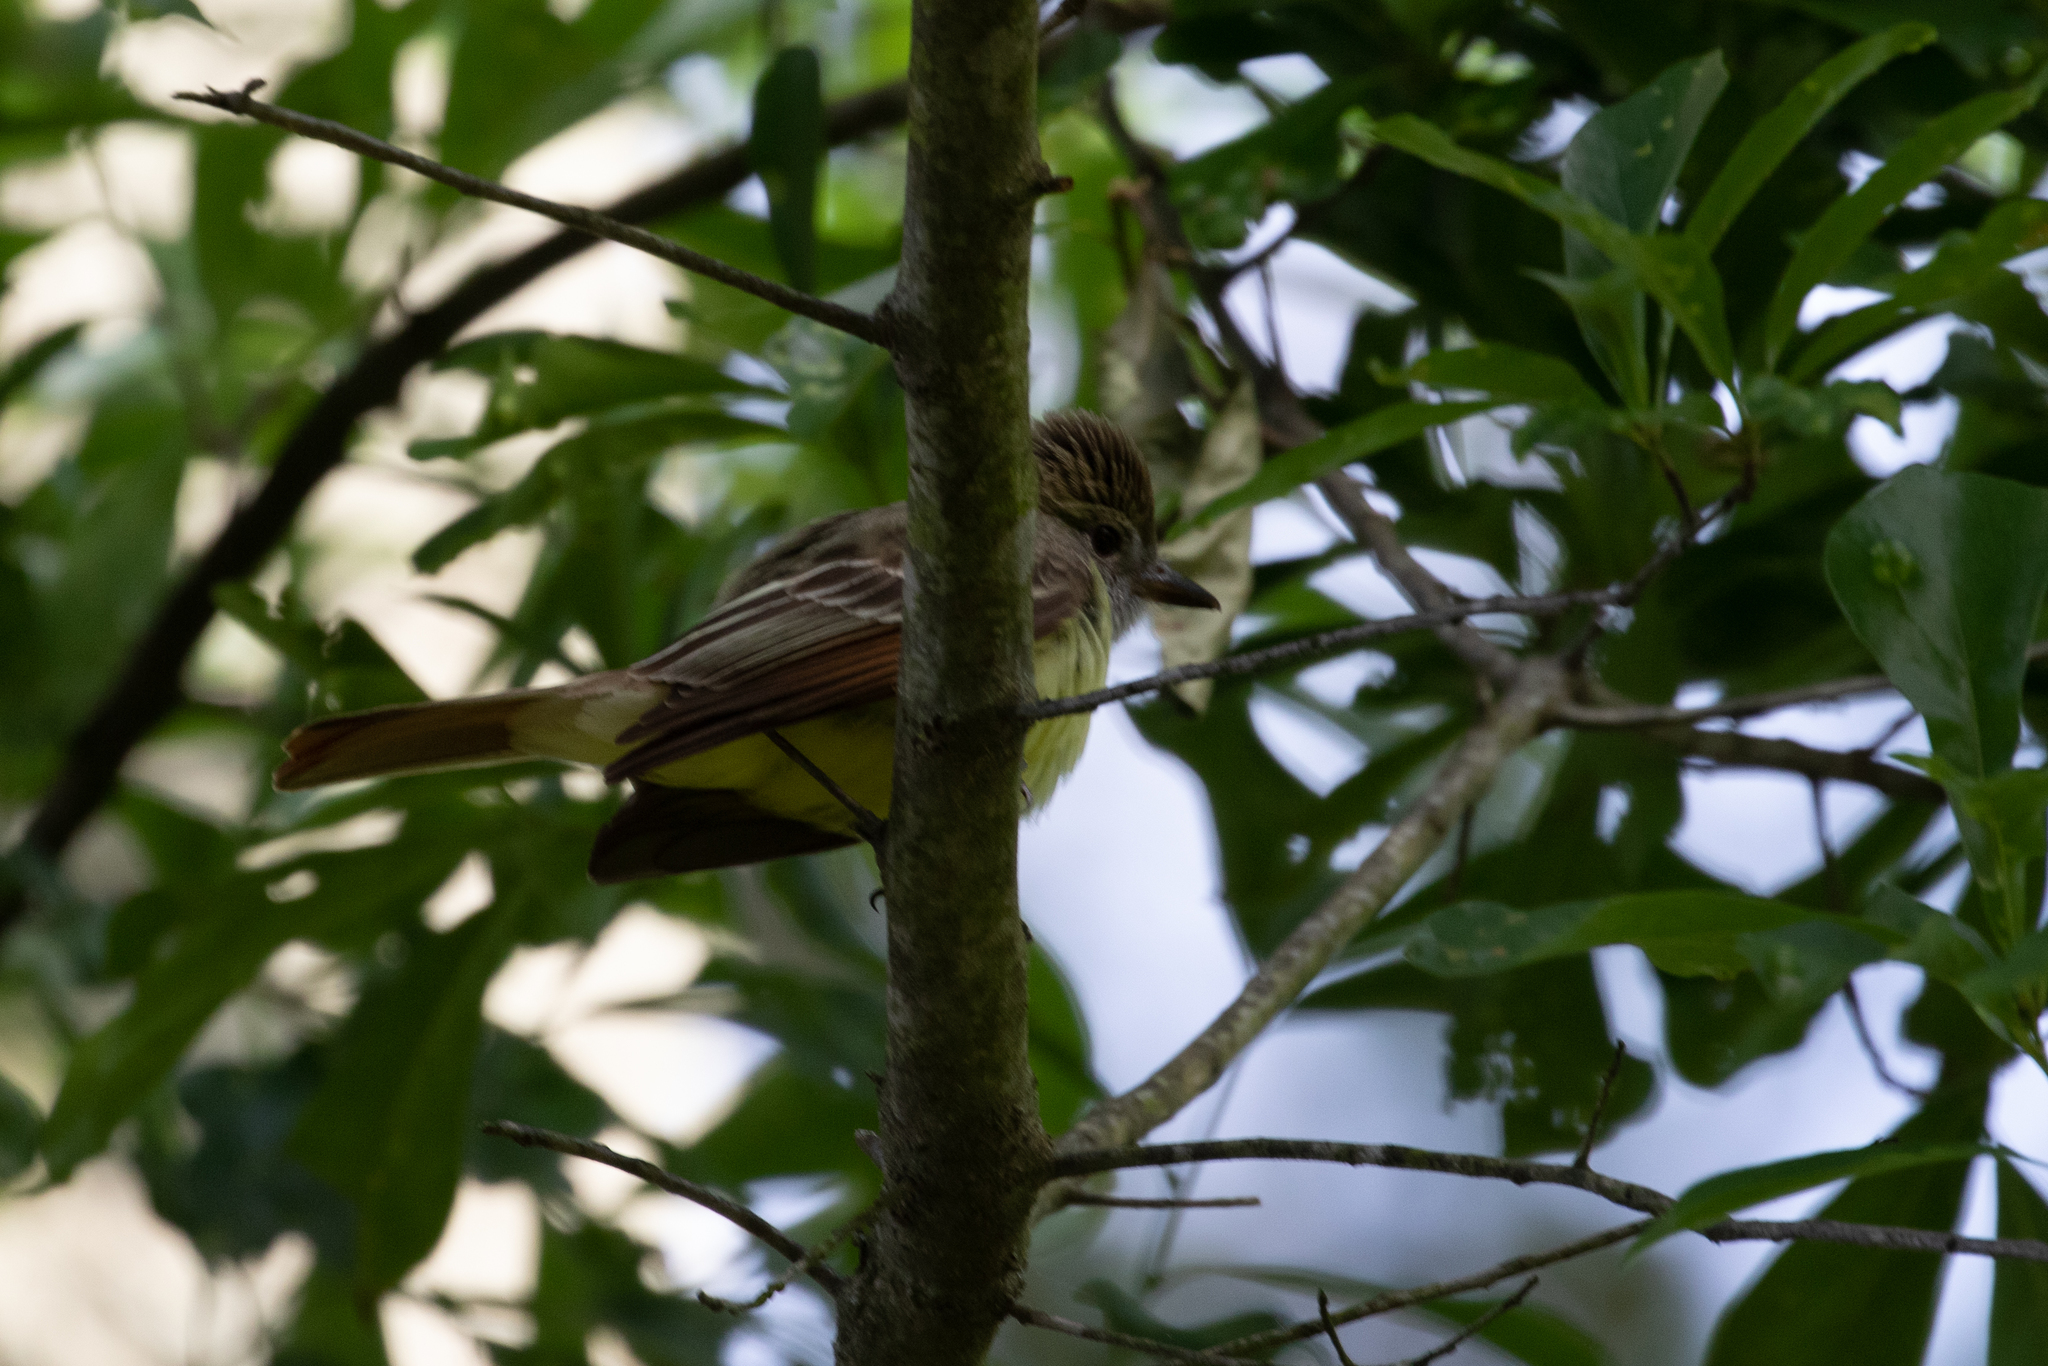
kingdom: Animalia
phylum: Chordata
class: Aves
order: Passeriformes
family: Tyrannidae
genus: Myiarchus
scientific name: Myiarchus crinitus
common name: Great crested flycatcher
